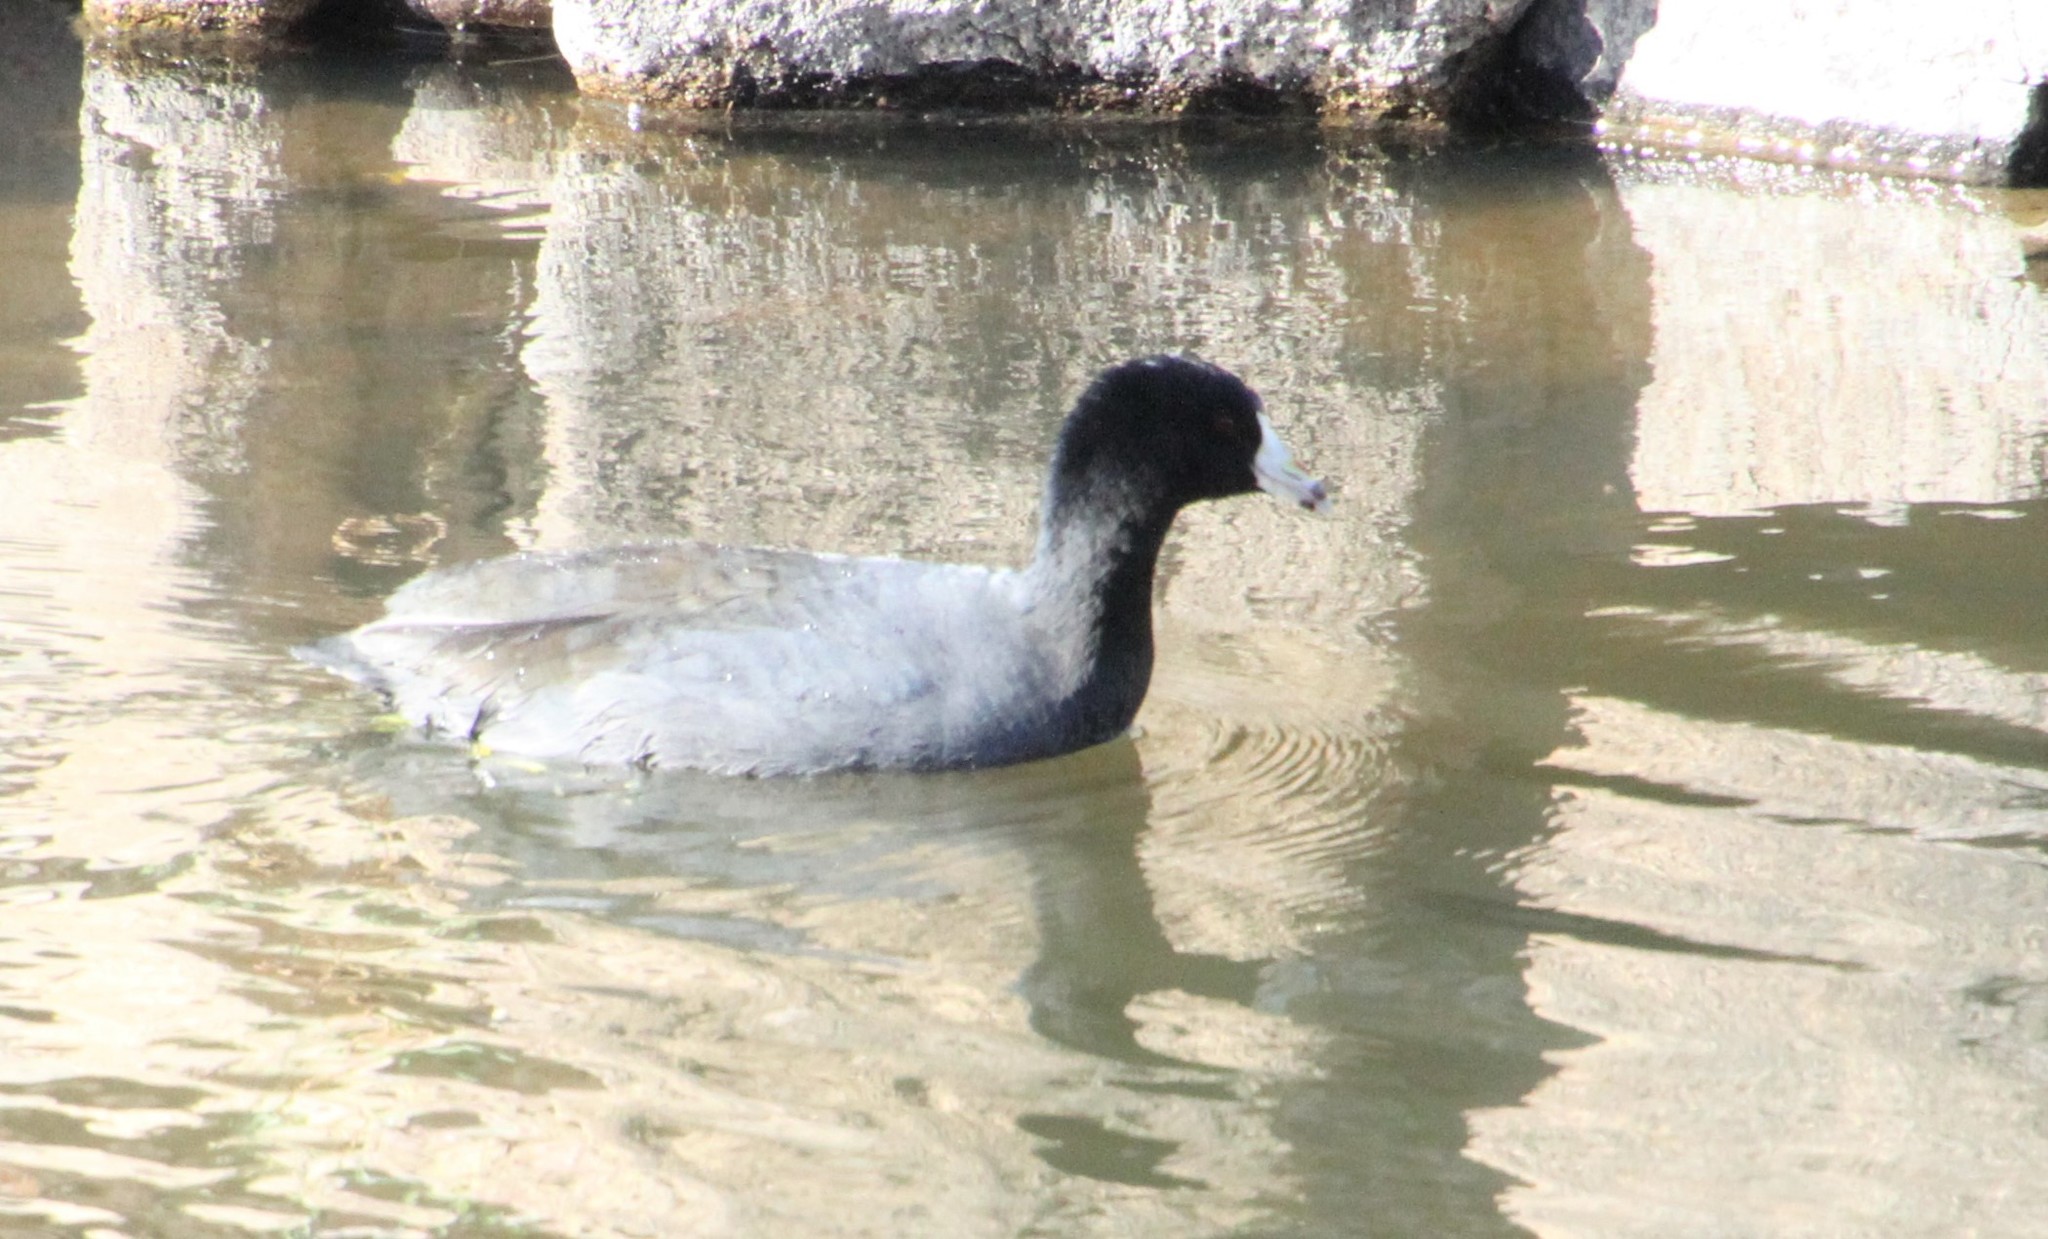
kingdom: Animalia
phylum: Chordata
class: Aves
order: Gruiformes
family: Rallidae
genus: Fulica
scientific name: Fulica americana
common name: American coot
